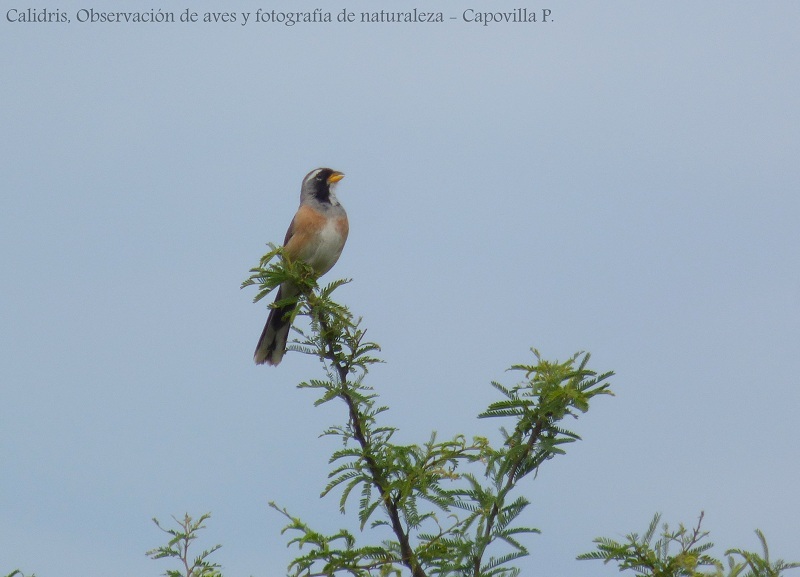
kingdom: Animalia
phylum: Chordata
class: Aves
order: Passeriformes
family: Thraupidae
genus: Saltatricula
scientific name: Saltatricula multicolor
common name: Many-colored chaco finch
